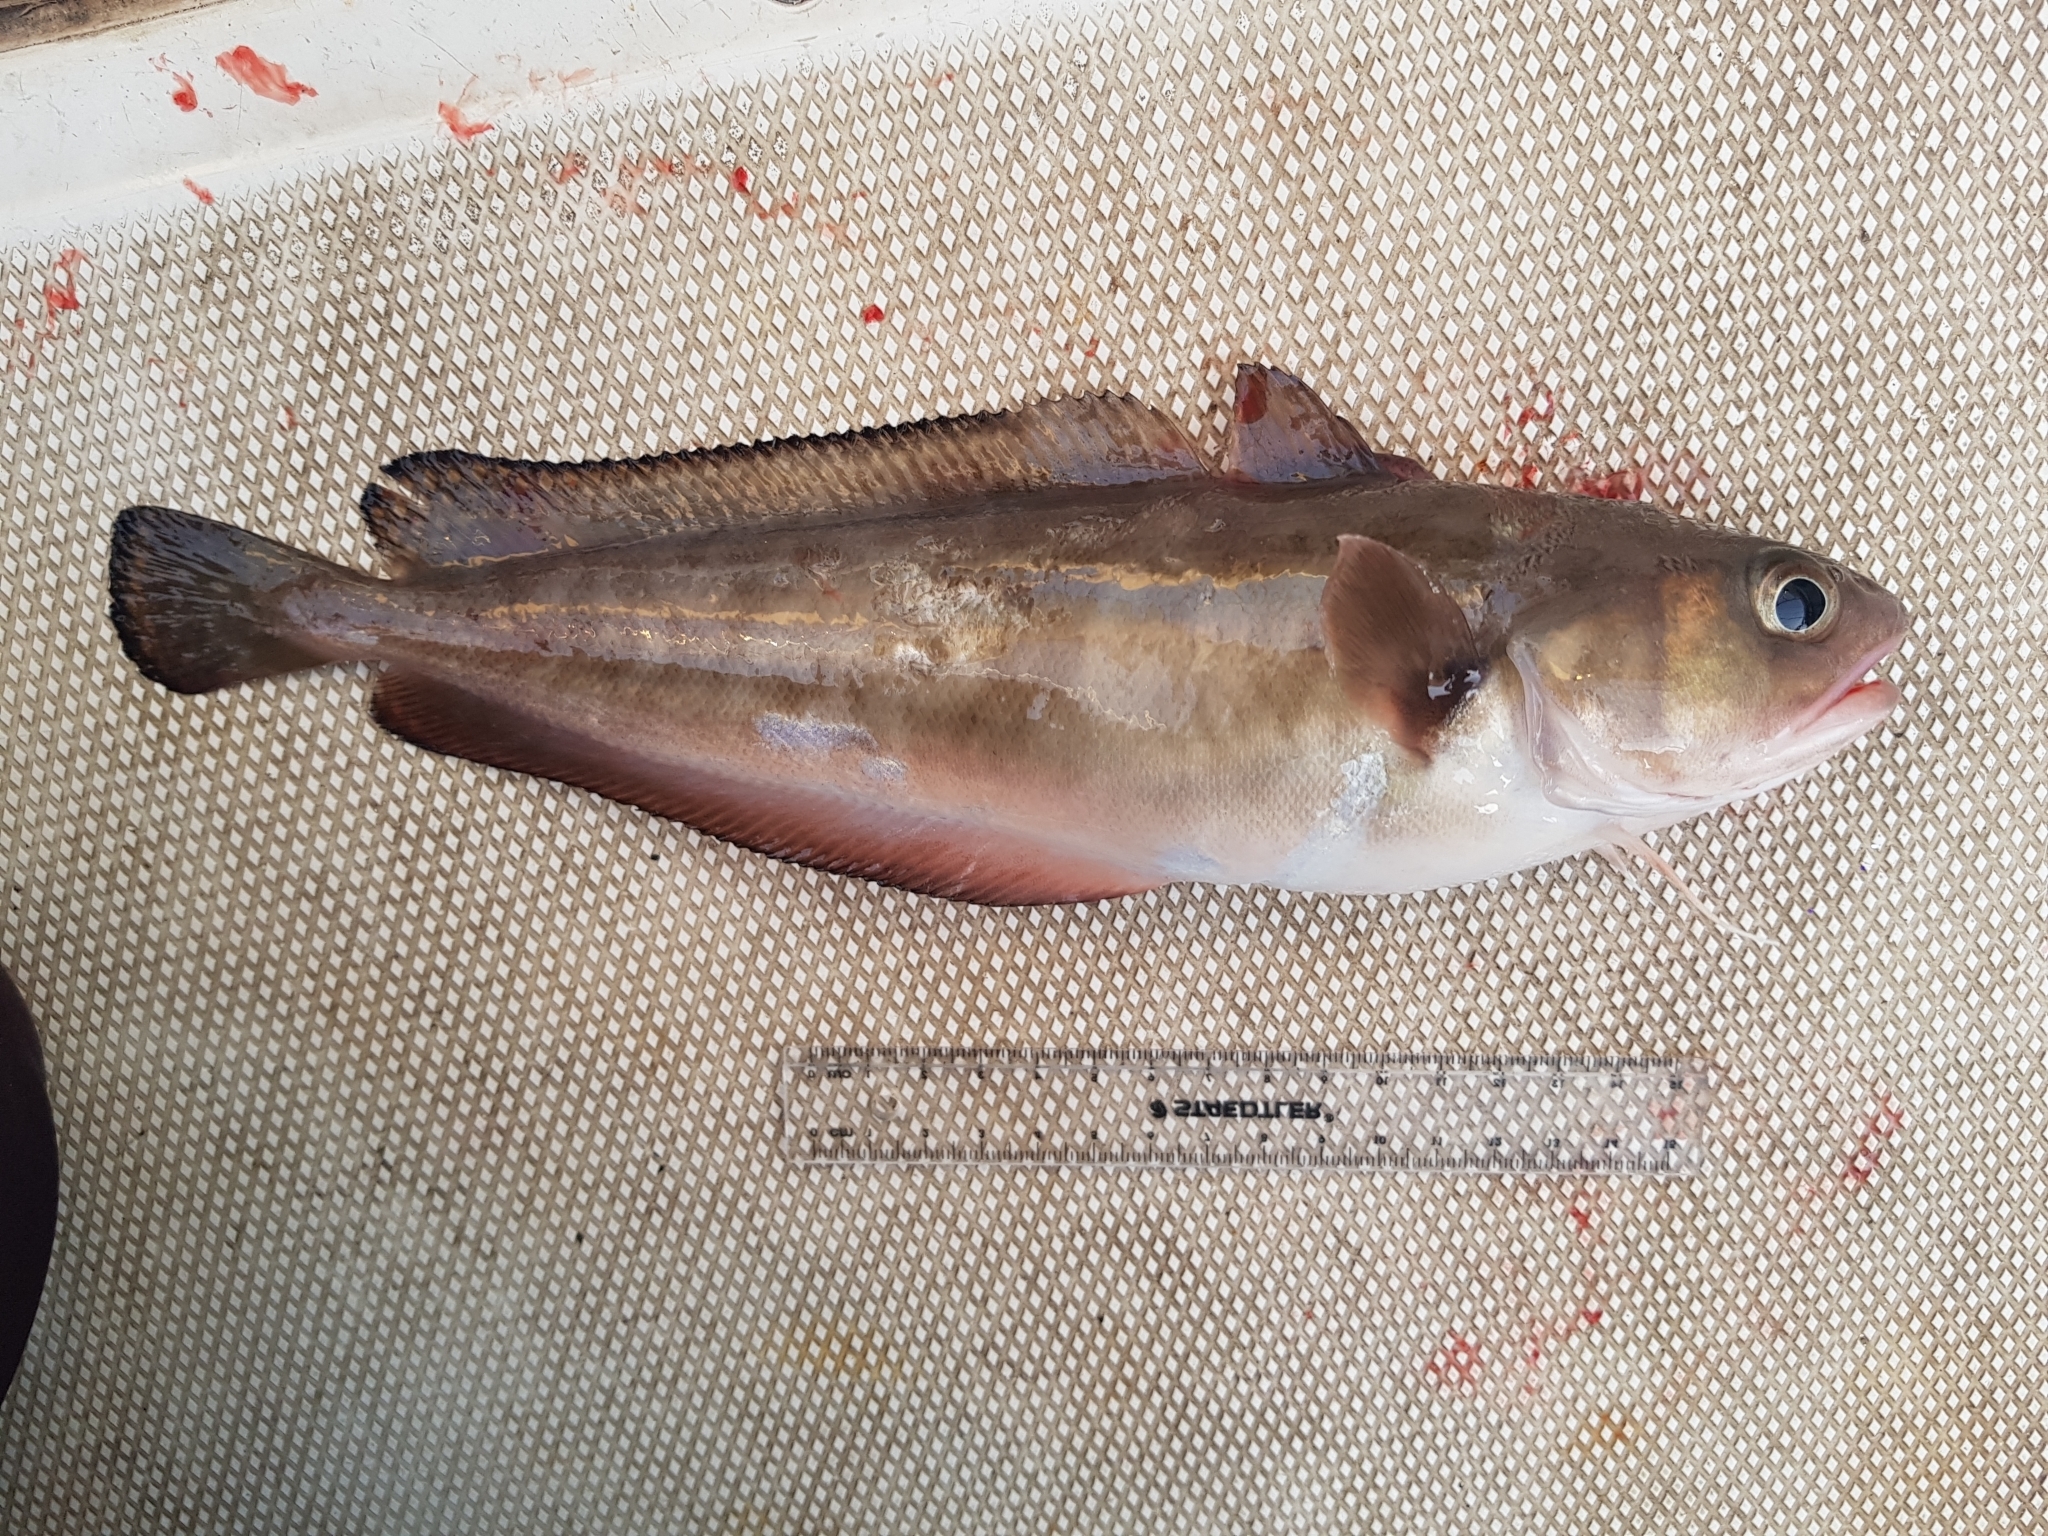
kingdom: Animalia
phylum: Chordata
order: Gadiformes
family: Moridae
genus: Pseudophycis
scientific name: Pseudophycis palmata
